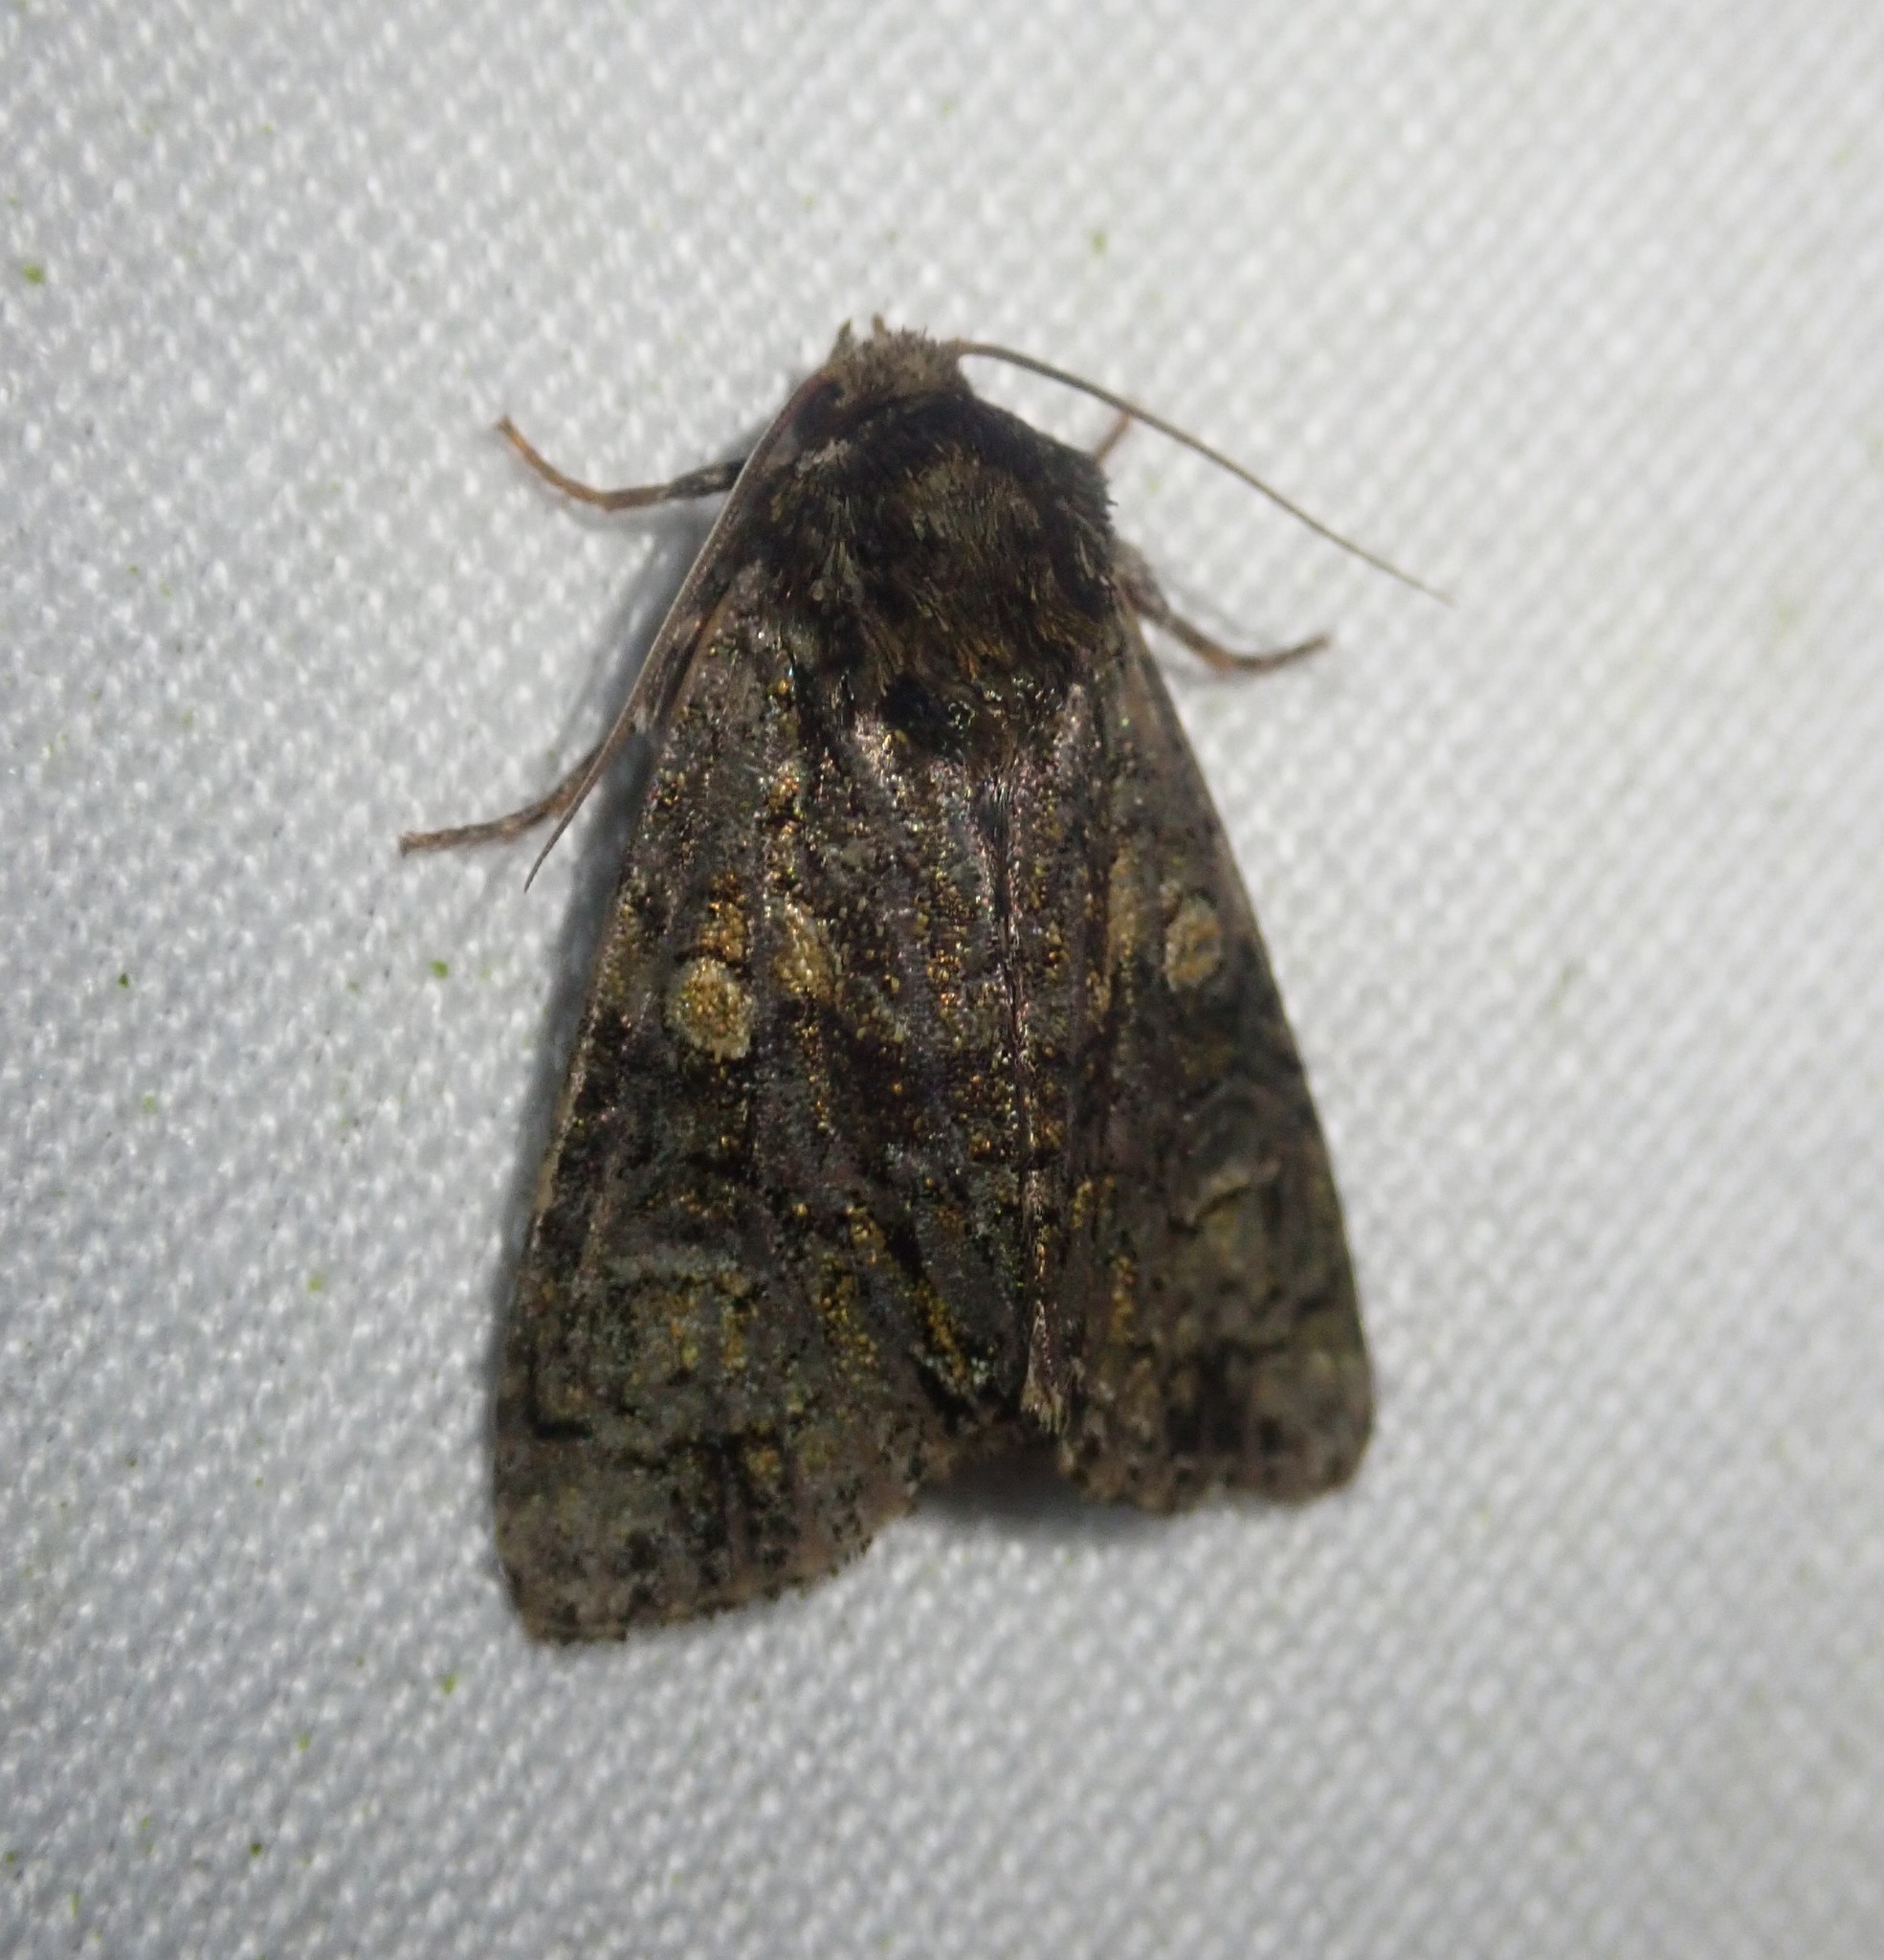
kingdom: Animalia
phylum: Arthropoda
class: Insecta
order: Lepidoptera
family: Noctuidae
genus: Craniophora
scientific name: Craniophora ligustri
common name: Coronet
